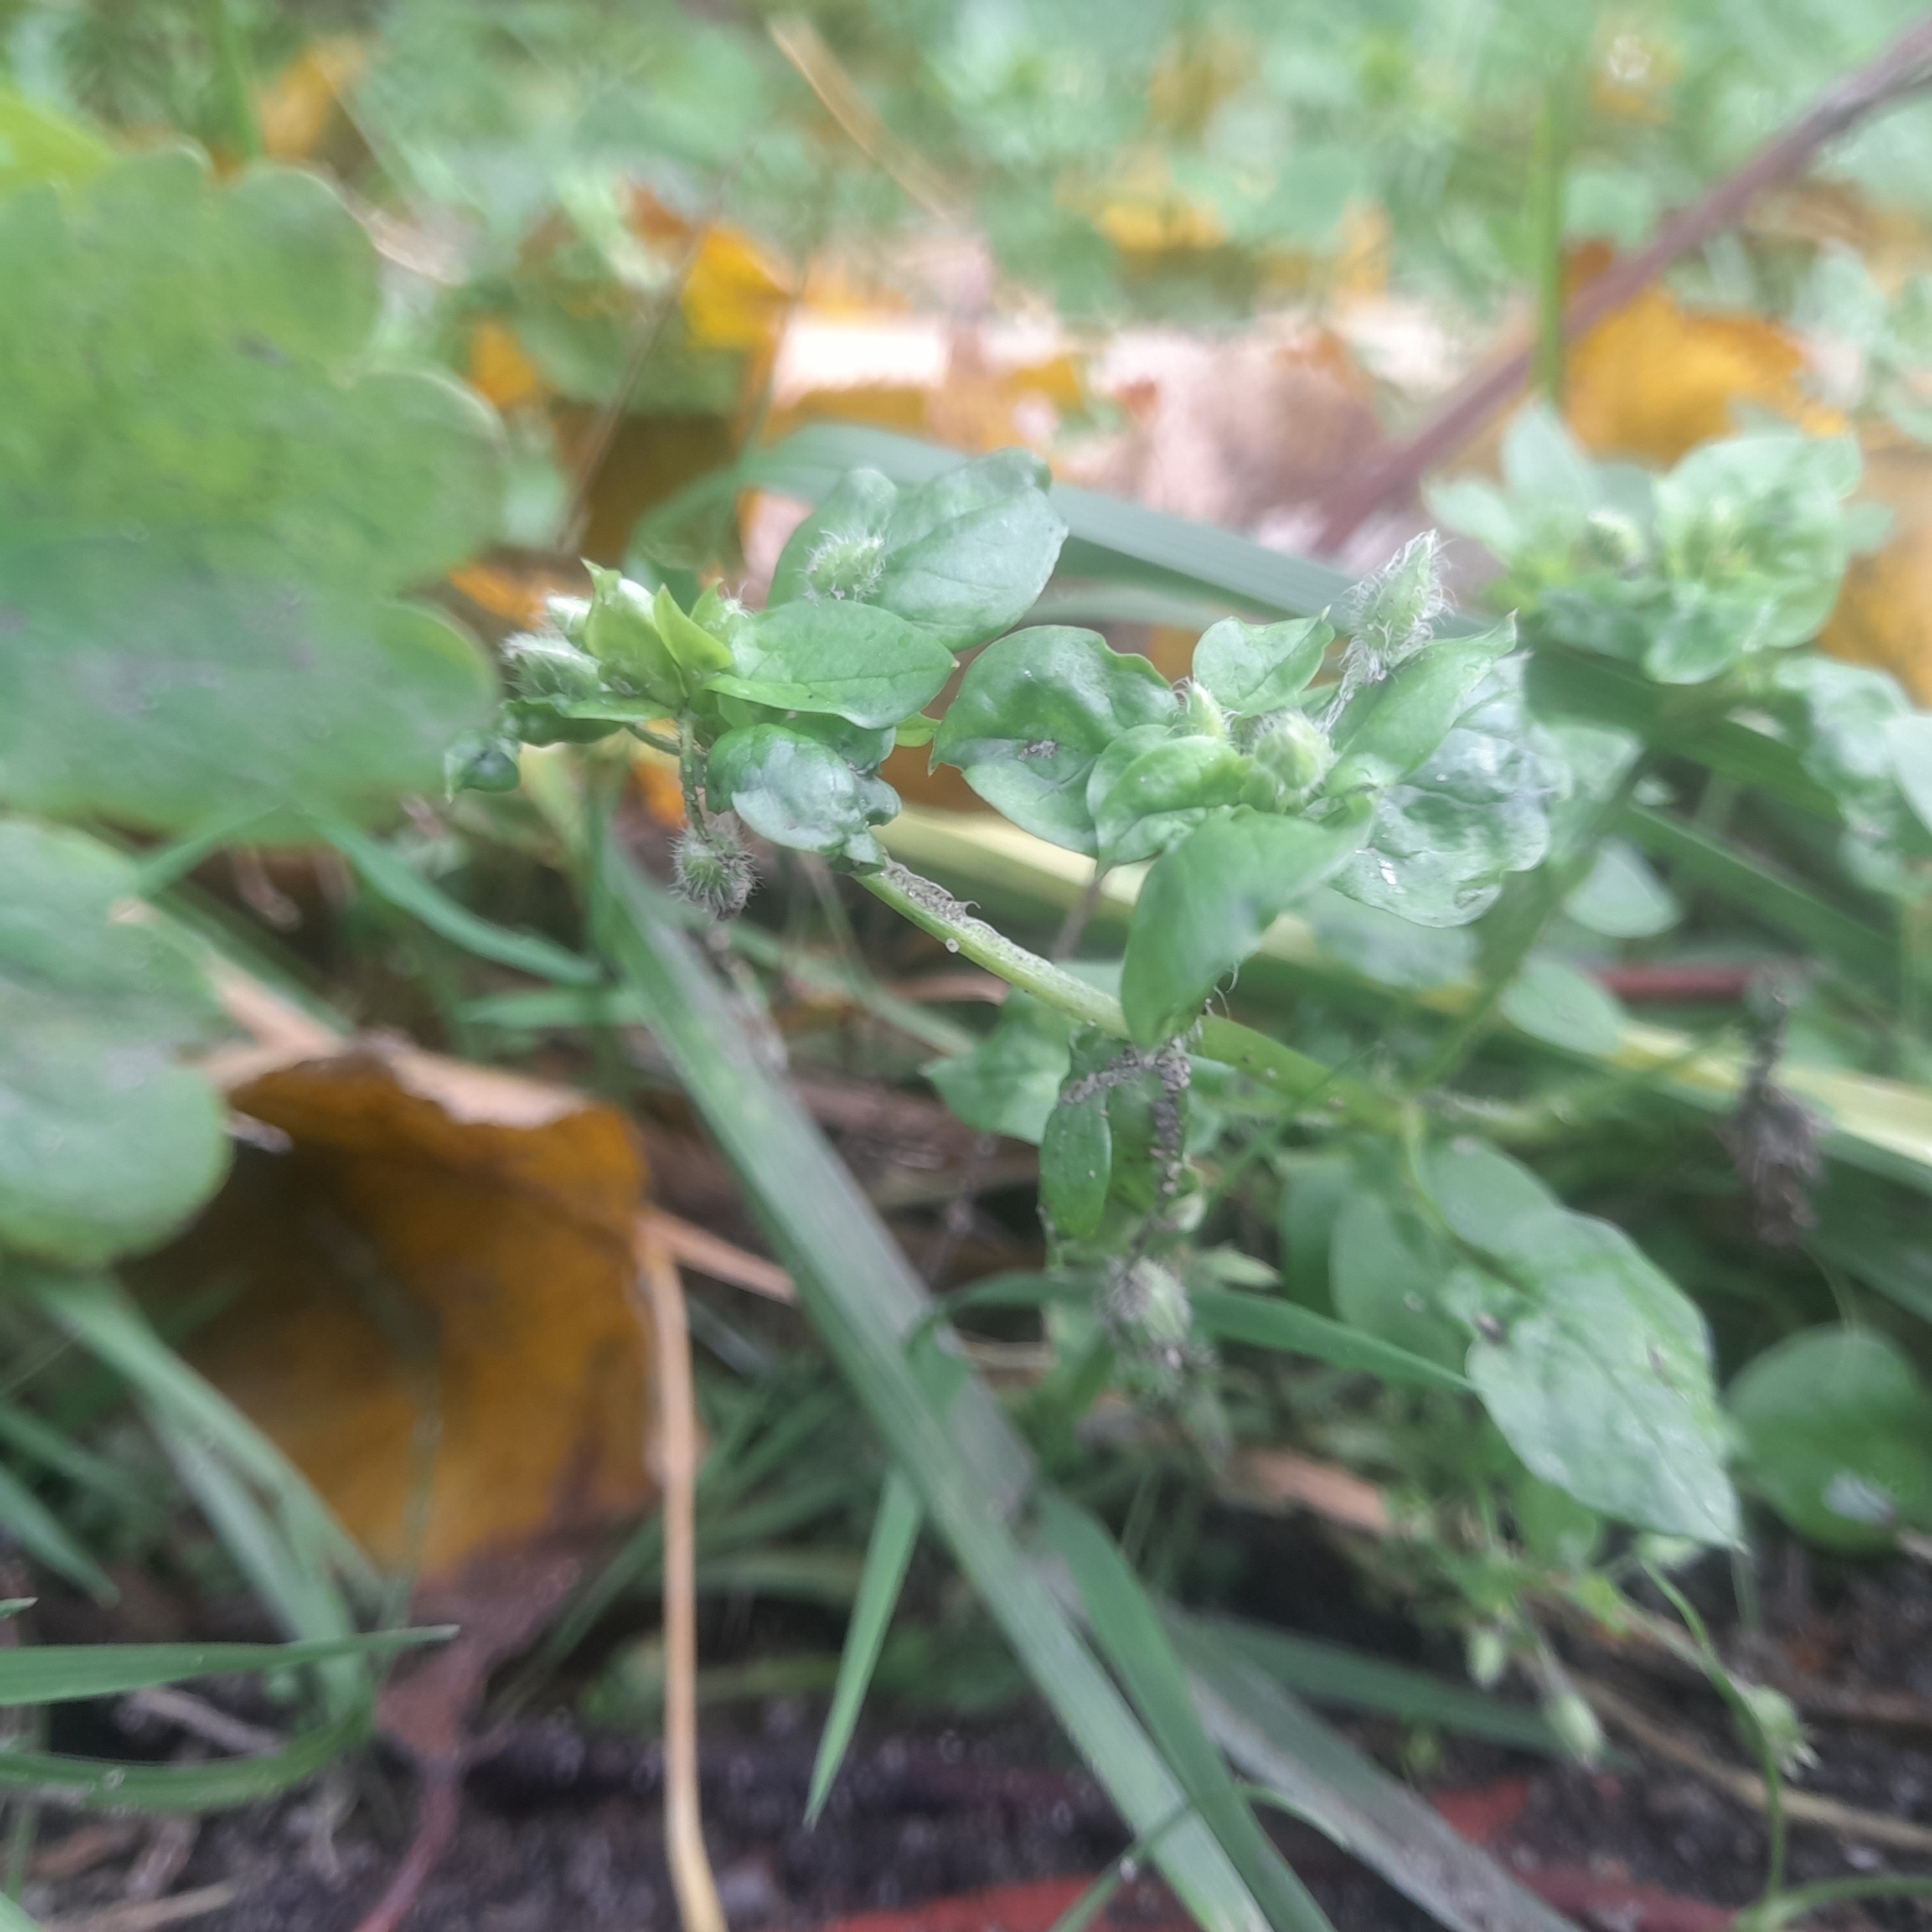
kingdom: Plantae
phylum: Tracheophyta
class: Magnoliopsida
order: Caryophyllales
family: Caryophyllaceae
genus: Stellaria
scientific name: Stellaria media
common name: Common chickweed
